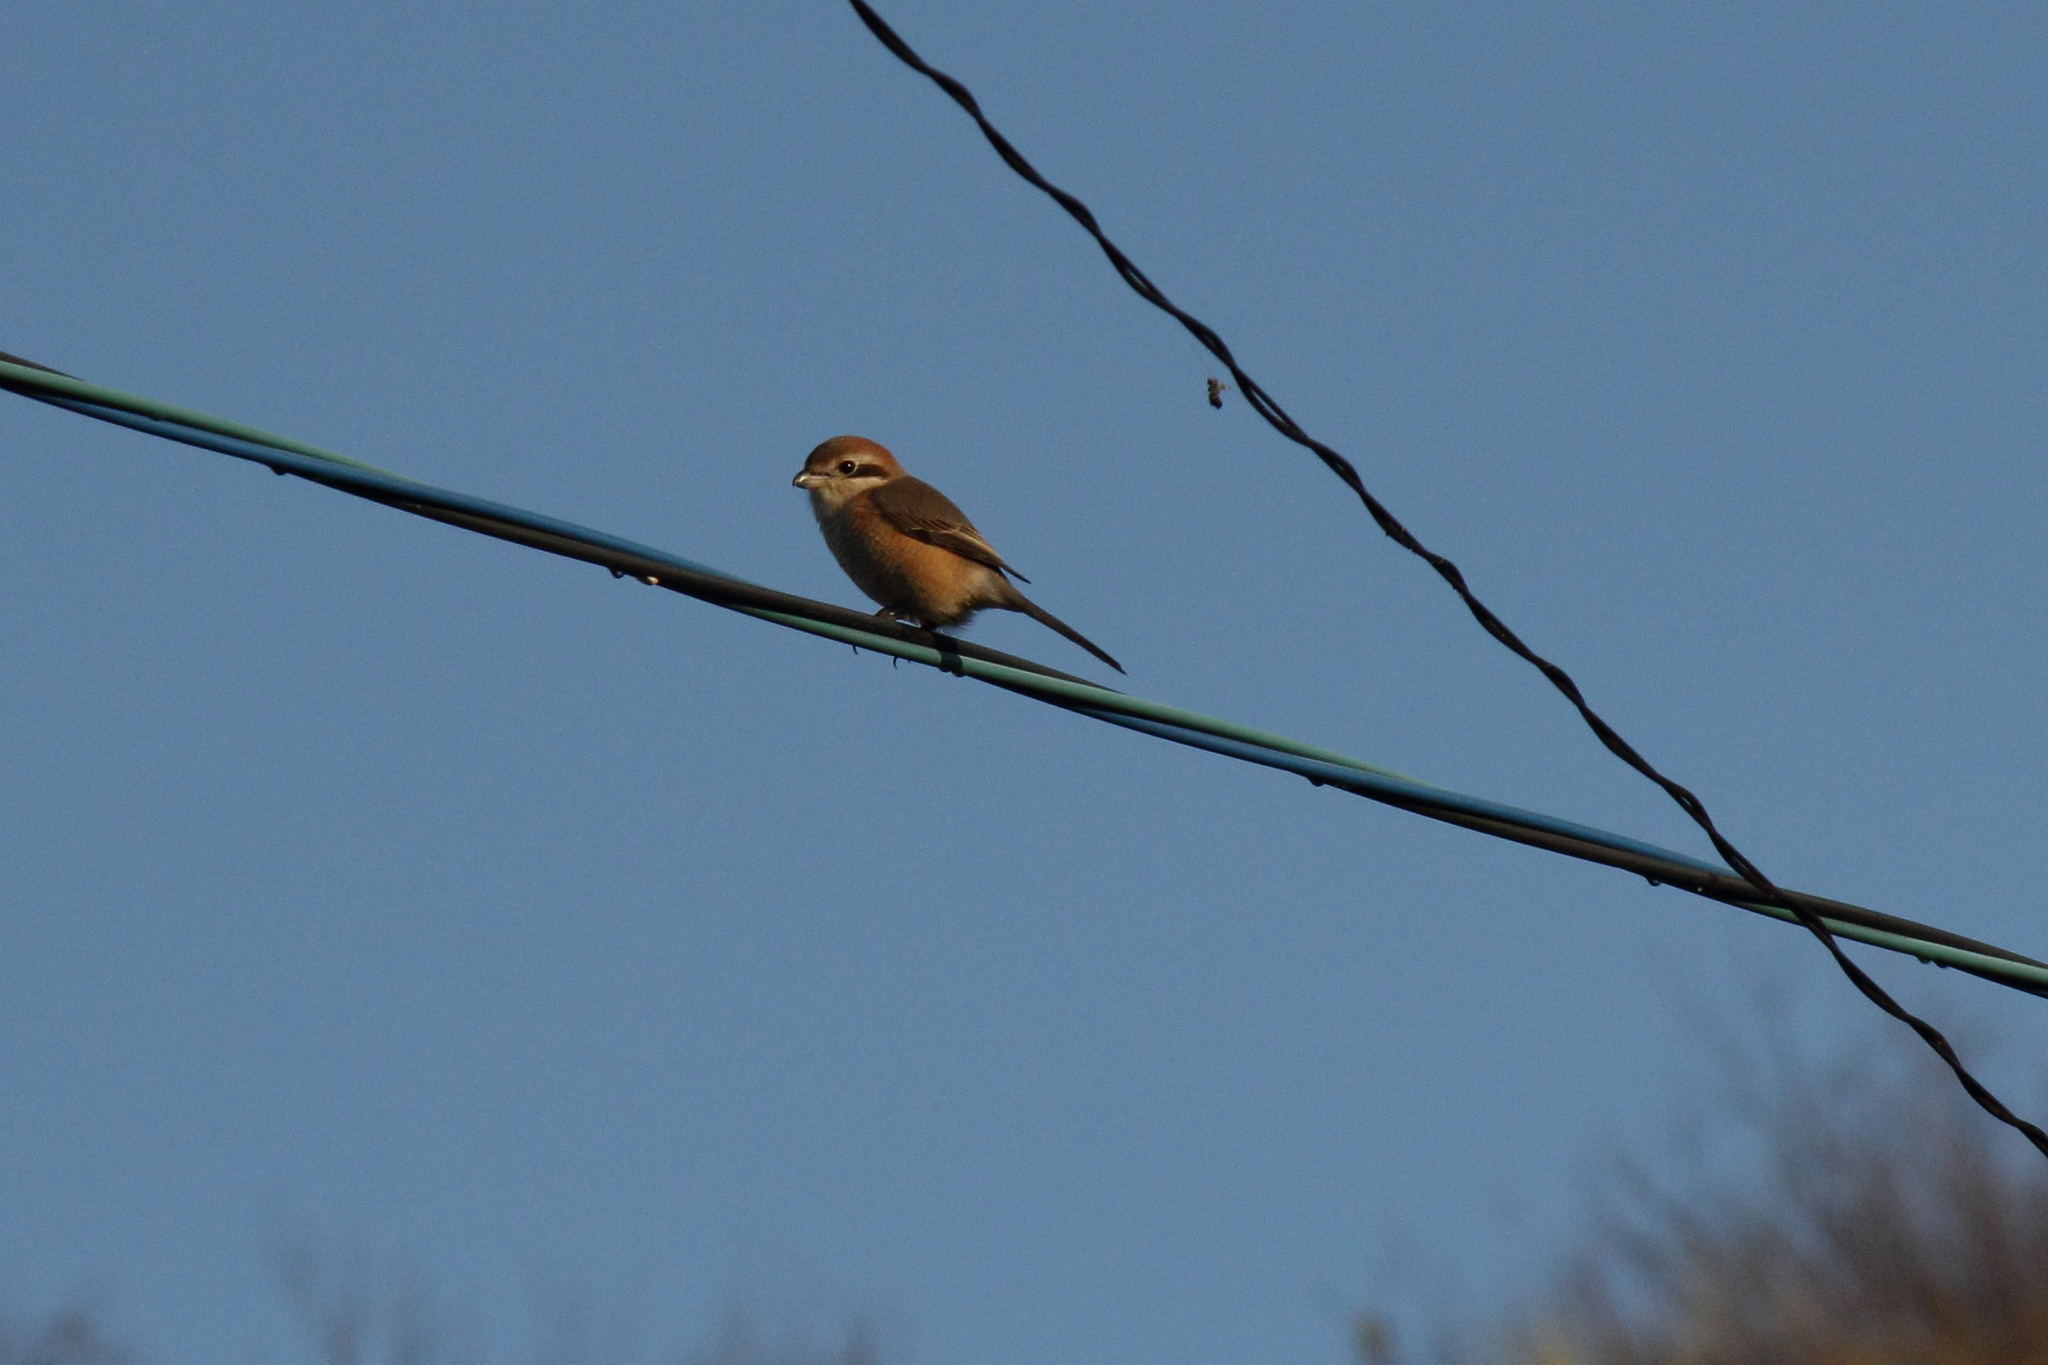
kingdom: Animalia
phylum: Chordata
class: Aves
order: Passeriformes
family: Laniidae
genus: Lanius
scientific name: Lanius bucephalus
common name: Bull-headed shrike
